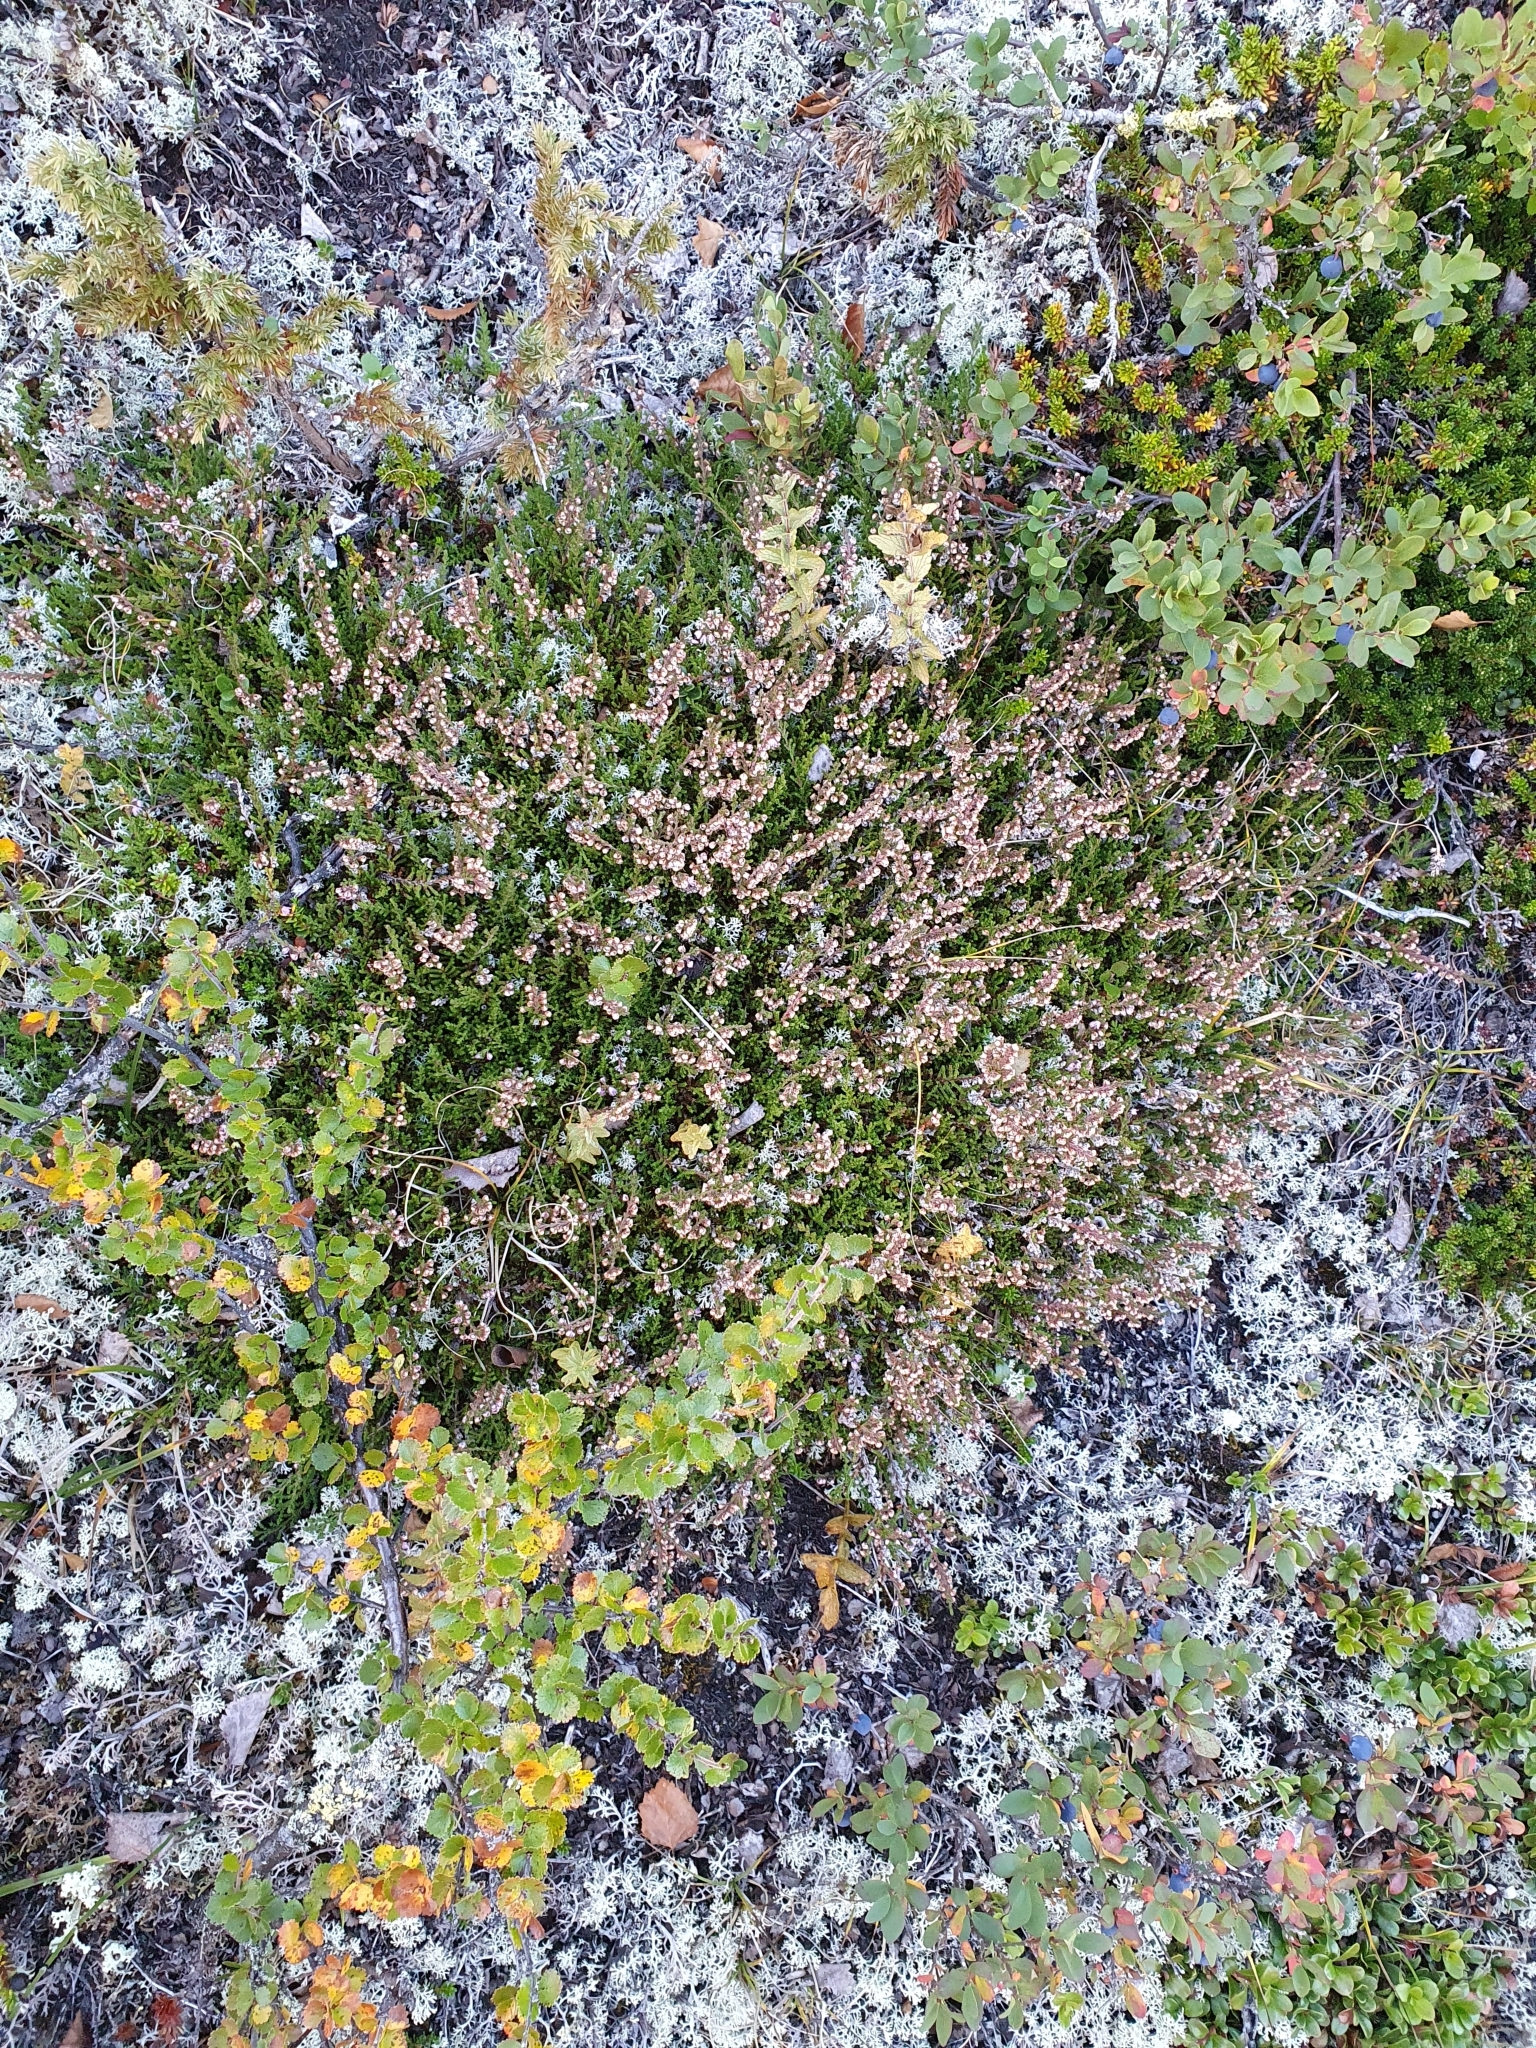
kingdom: Plantae
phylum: Tracheophyta
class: Magnoliopsida
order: Ericales
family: Ericaceae
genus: Calluna
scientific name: Calluna vulgaris
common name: Heather
